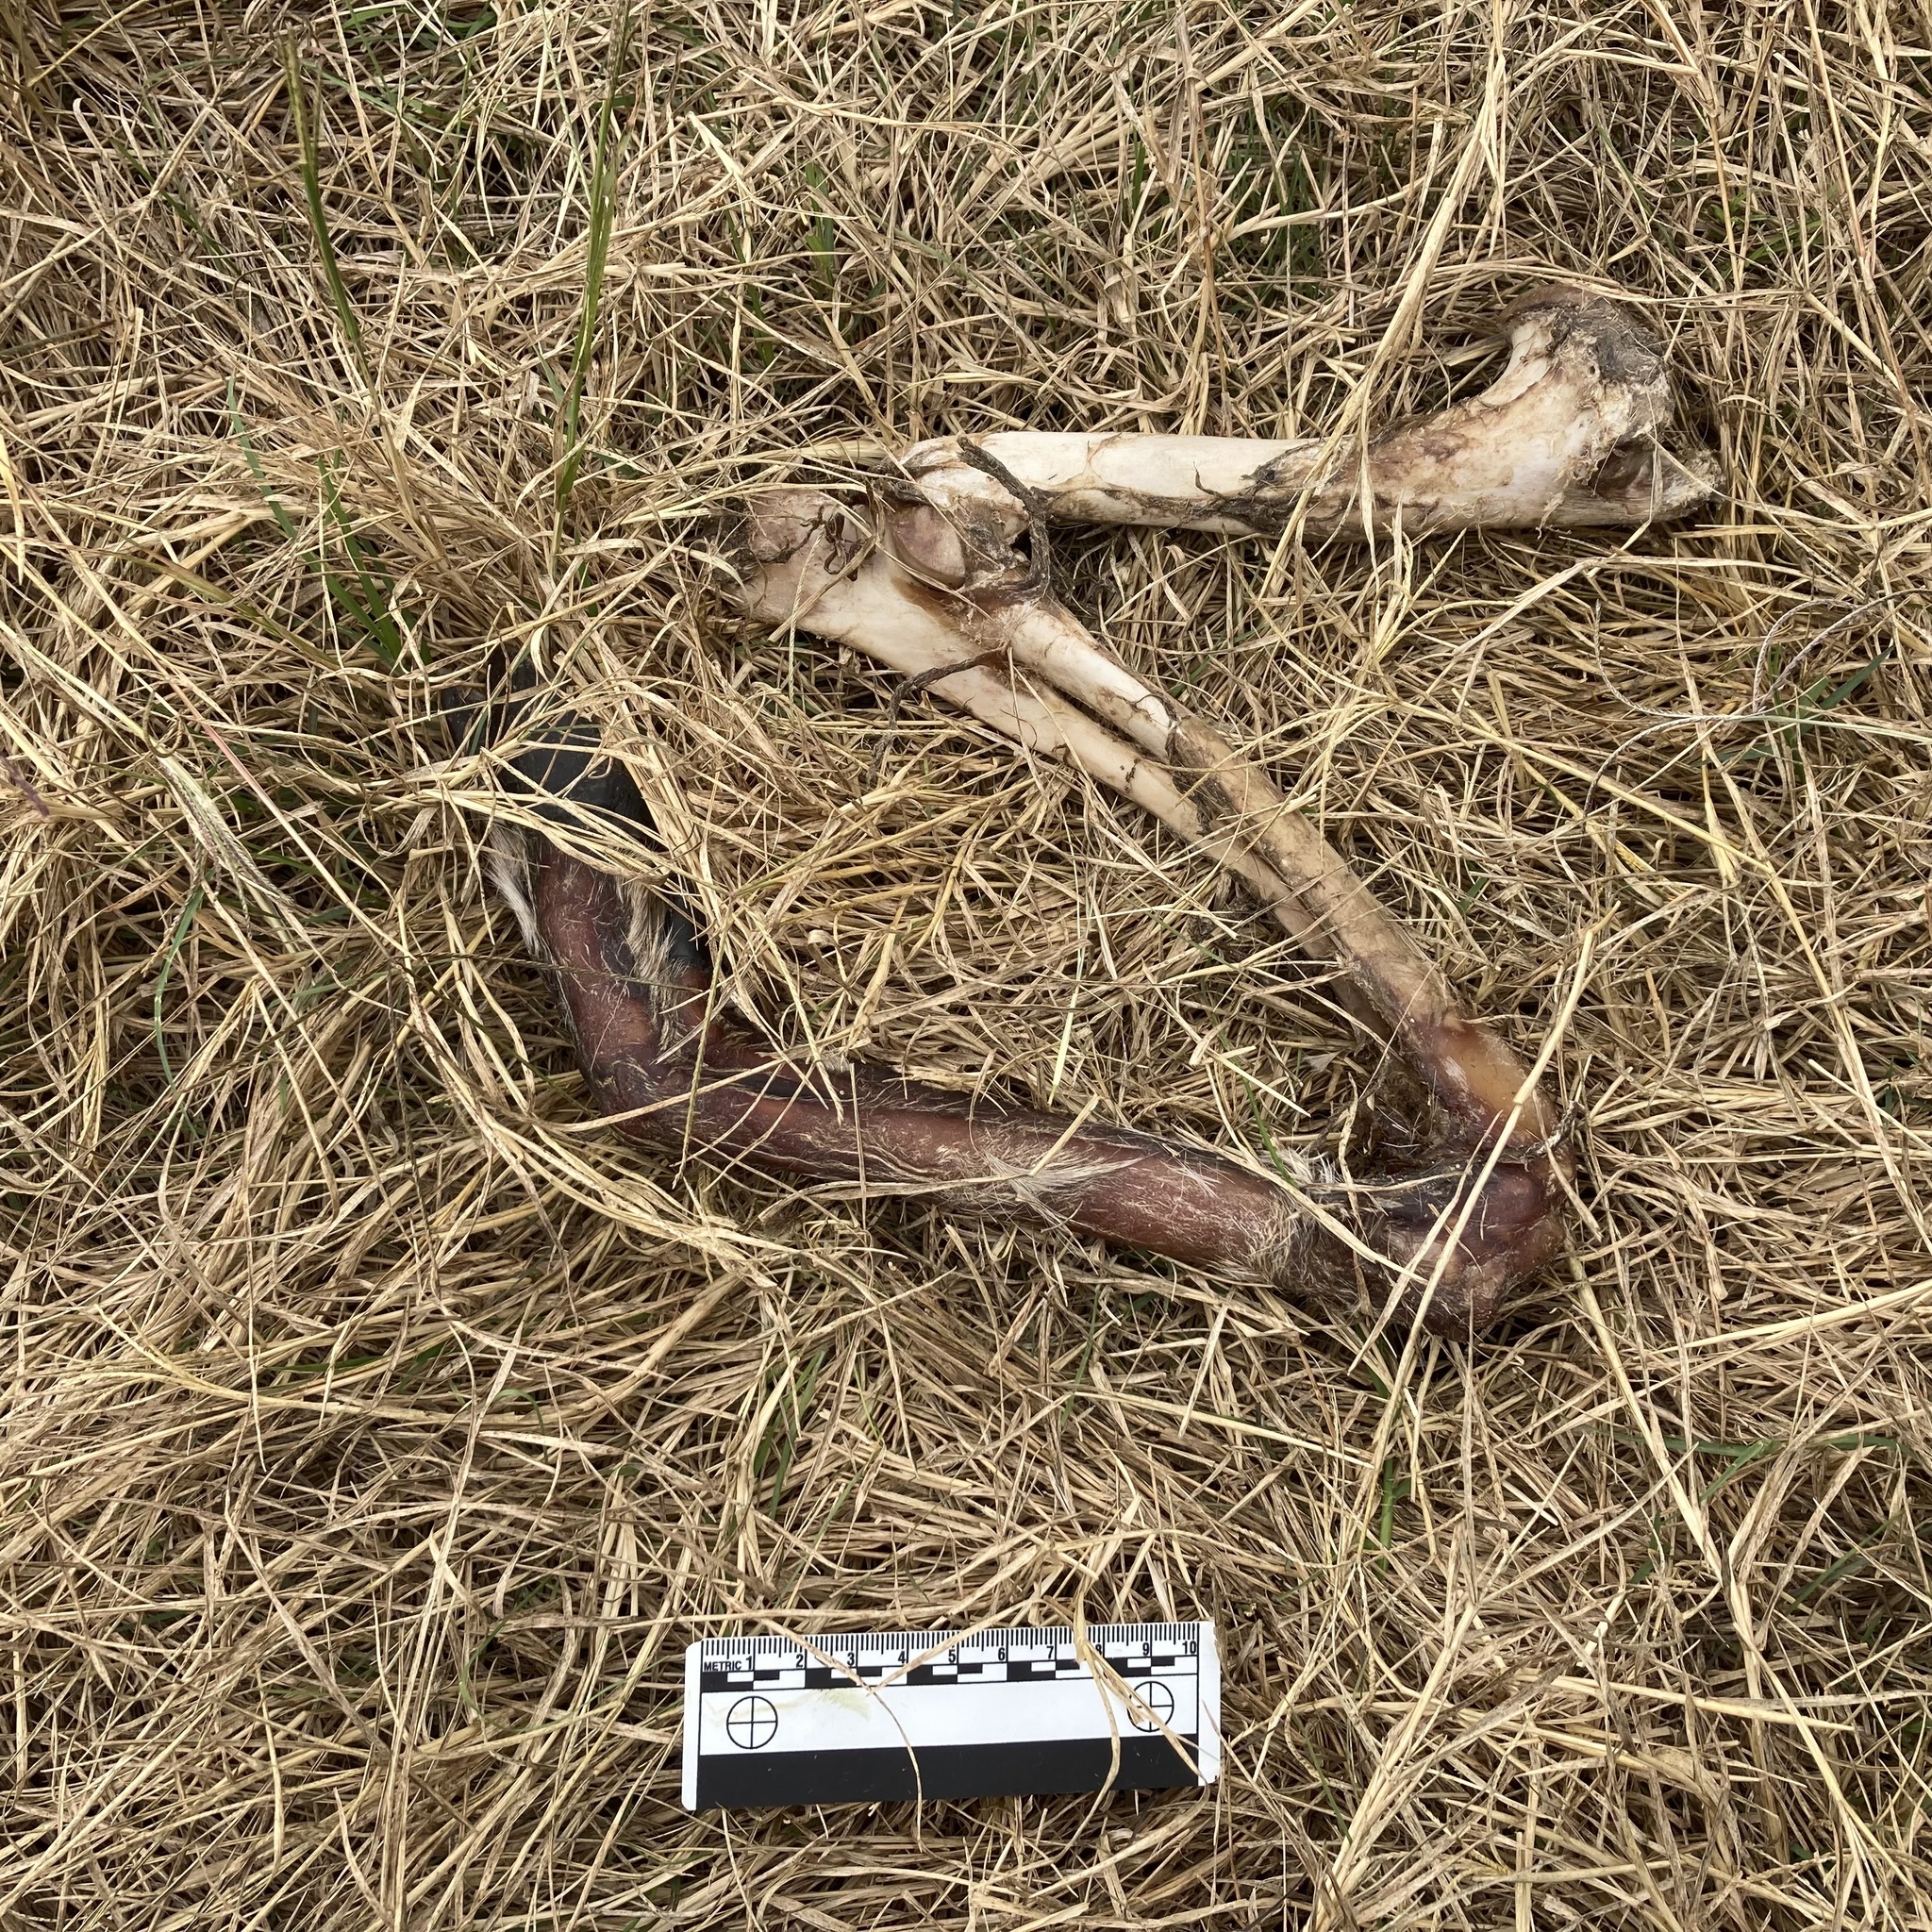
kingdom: Animalia
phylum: Chordata
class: Mammalia
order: Artiodactyla
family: Suidae
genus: Sus
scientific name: Sus scrofa
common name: Wild boar
